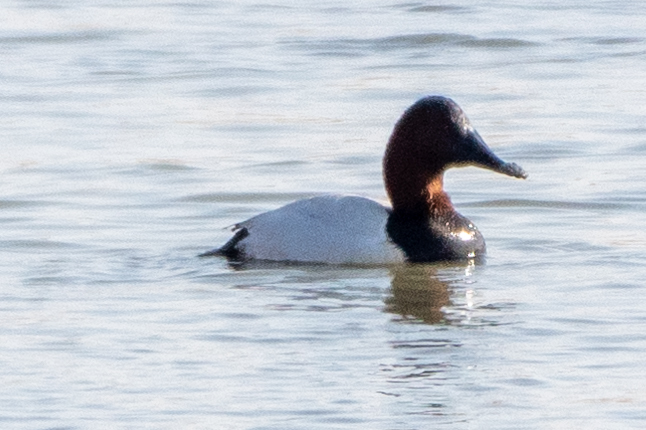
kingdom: Animalia
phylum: Chordata
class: Aves
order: Anseriformes
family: Anatidae
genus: Aythya
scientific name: Aythya valisineria
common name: Canvasback
